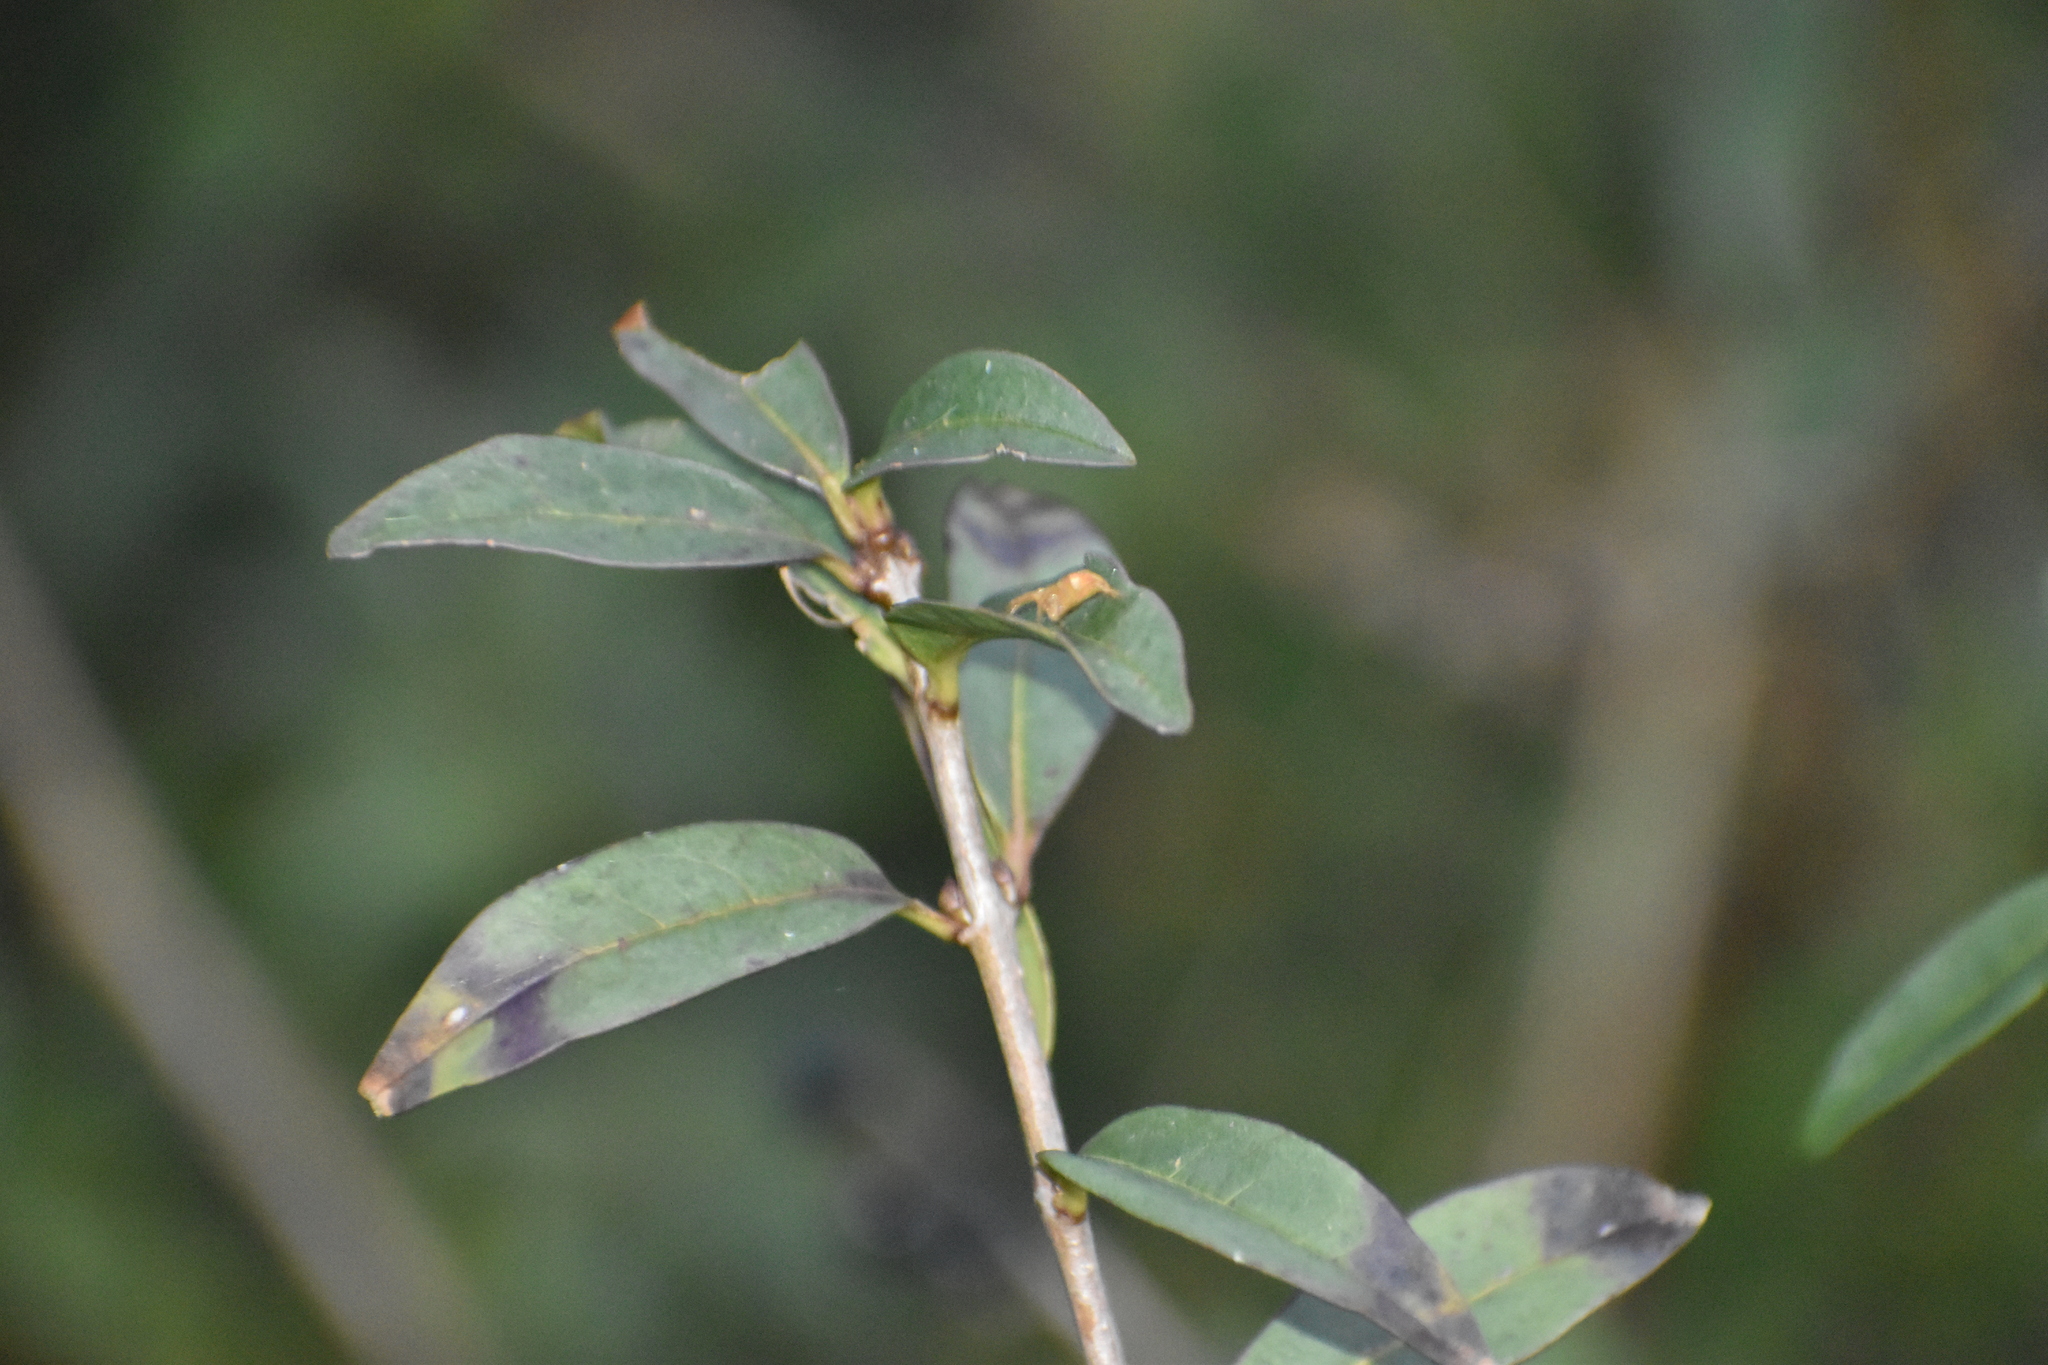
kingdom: Plantae
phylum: Tracheophyta
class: Magnoliopsida
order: Lamiales
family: Oleaceae
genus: Ligustrum
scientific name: Ligustrum vulgare
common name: Wild privet
